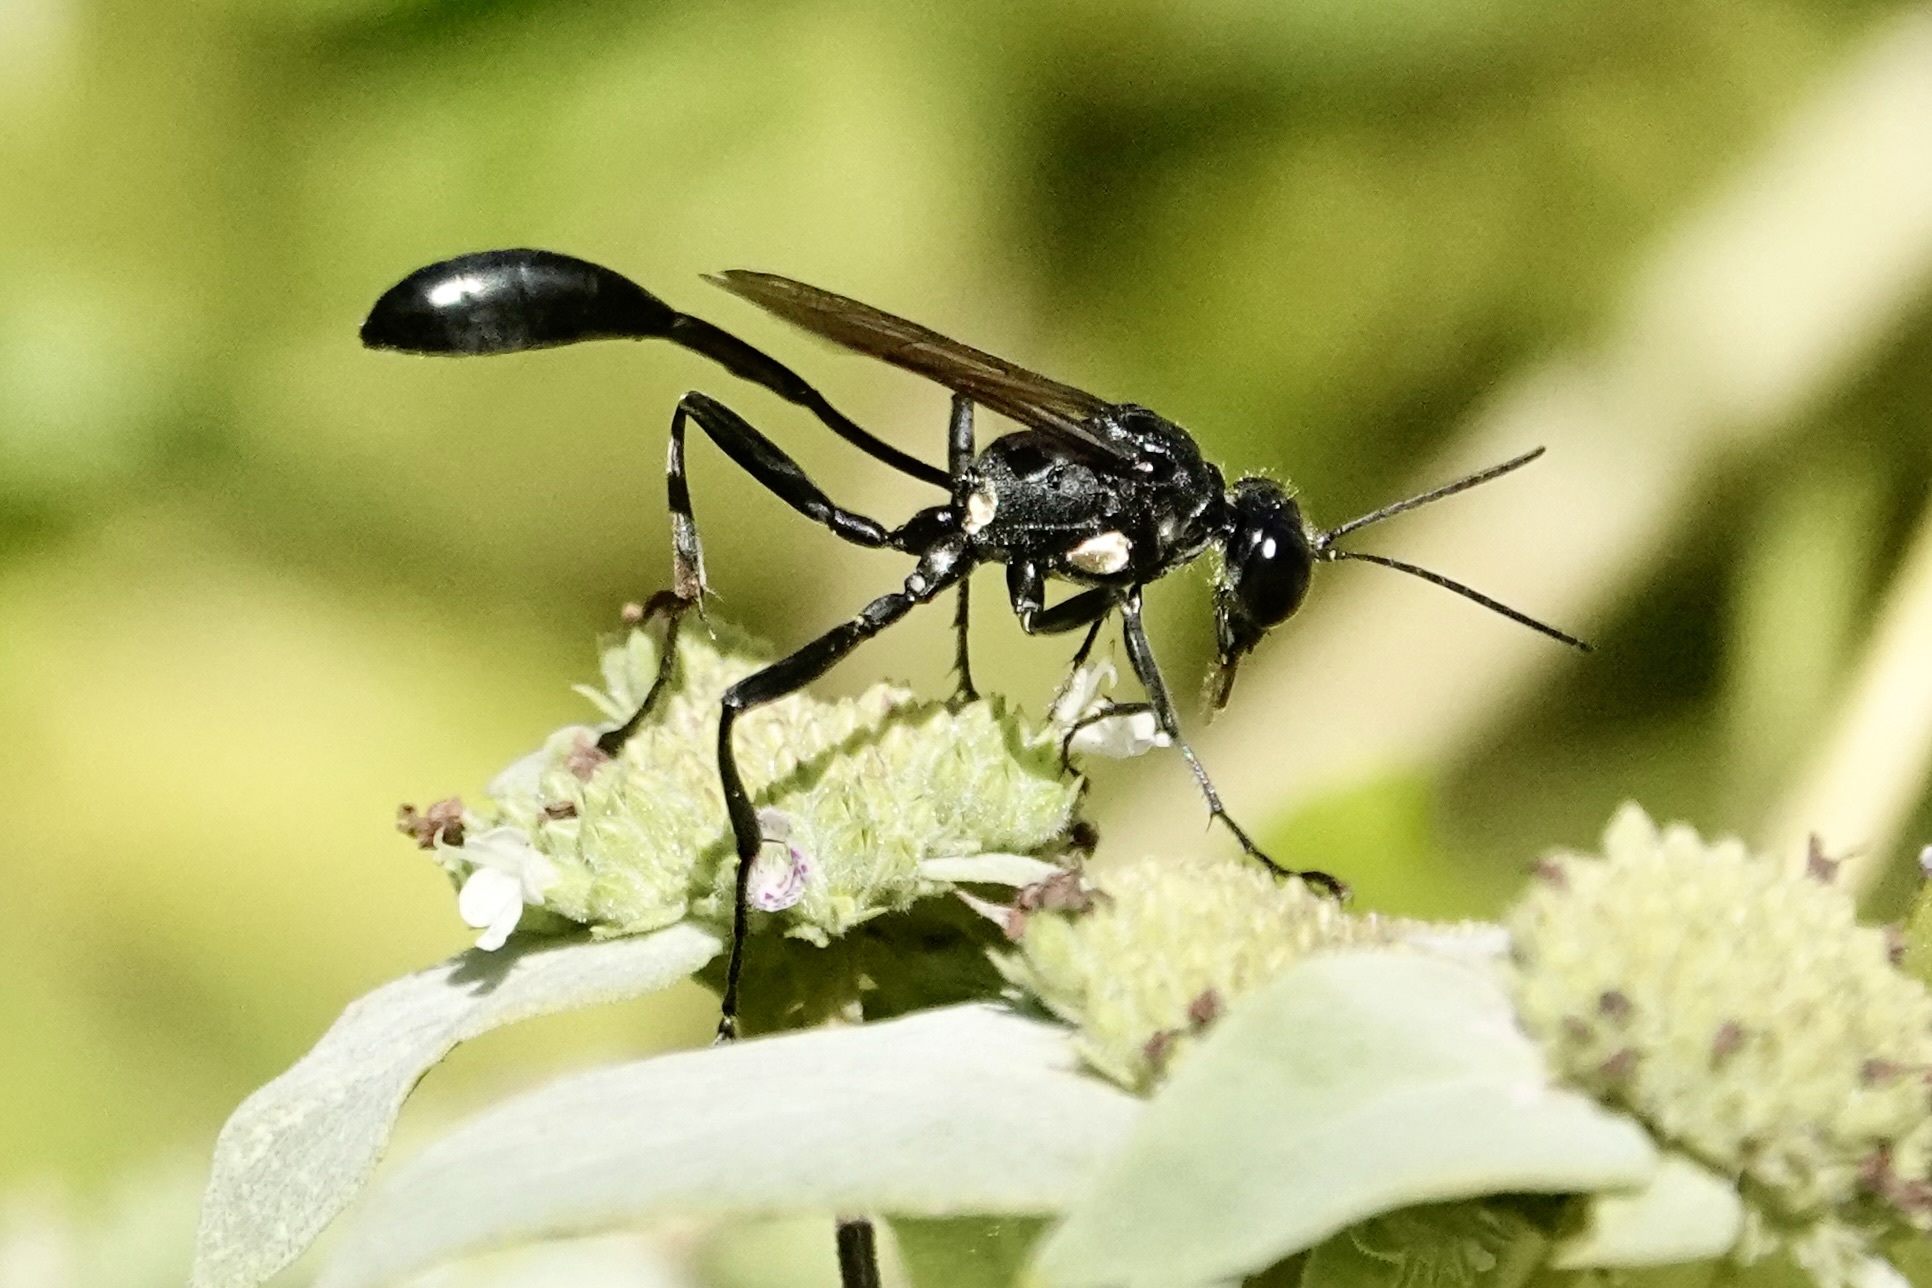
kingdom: Animalia
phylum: Arthropoda
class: Insecta
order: Hymenoptera
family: Sphecidae
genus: Eremnophila
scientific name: Eremnophila aureonotata
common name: Gold-marked thread-waisted wasp
